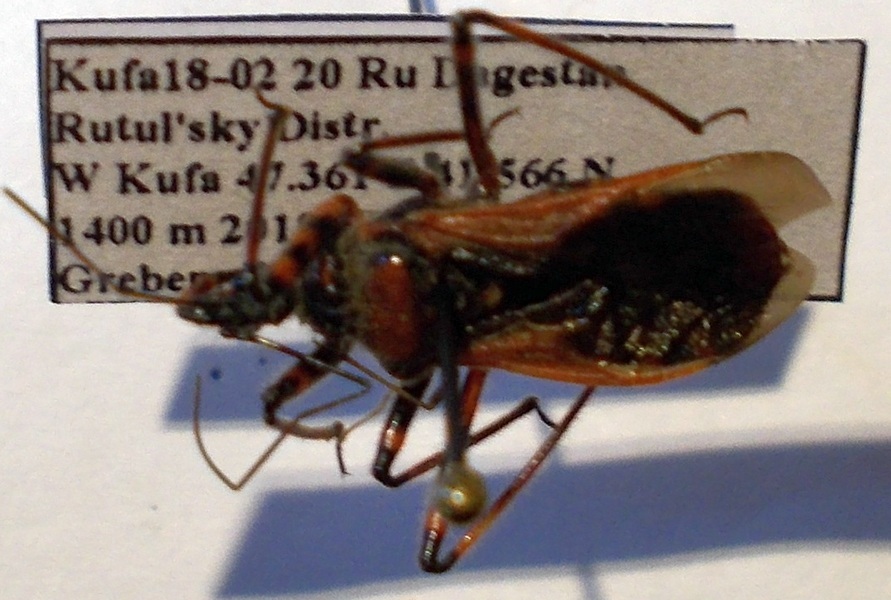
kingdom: Animalia
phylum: Arthropoda
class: Insecta
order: Hemiptera
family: Reduviidae
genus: Rhynocoris
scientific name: Rhynocoris iracundus
